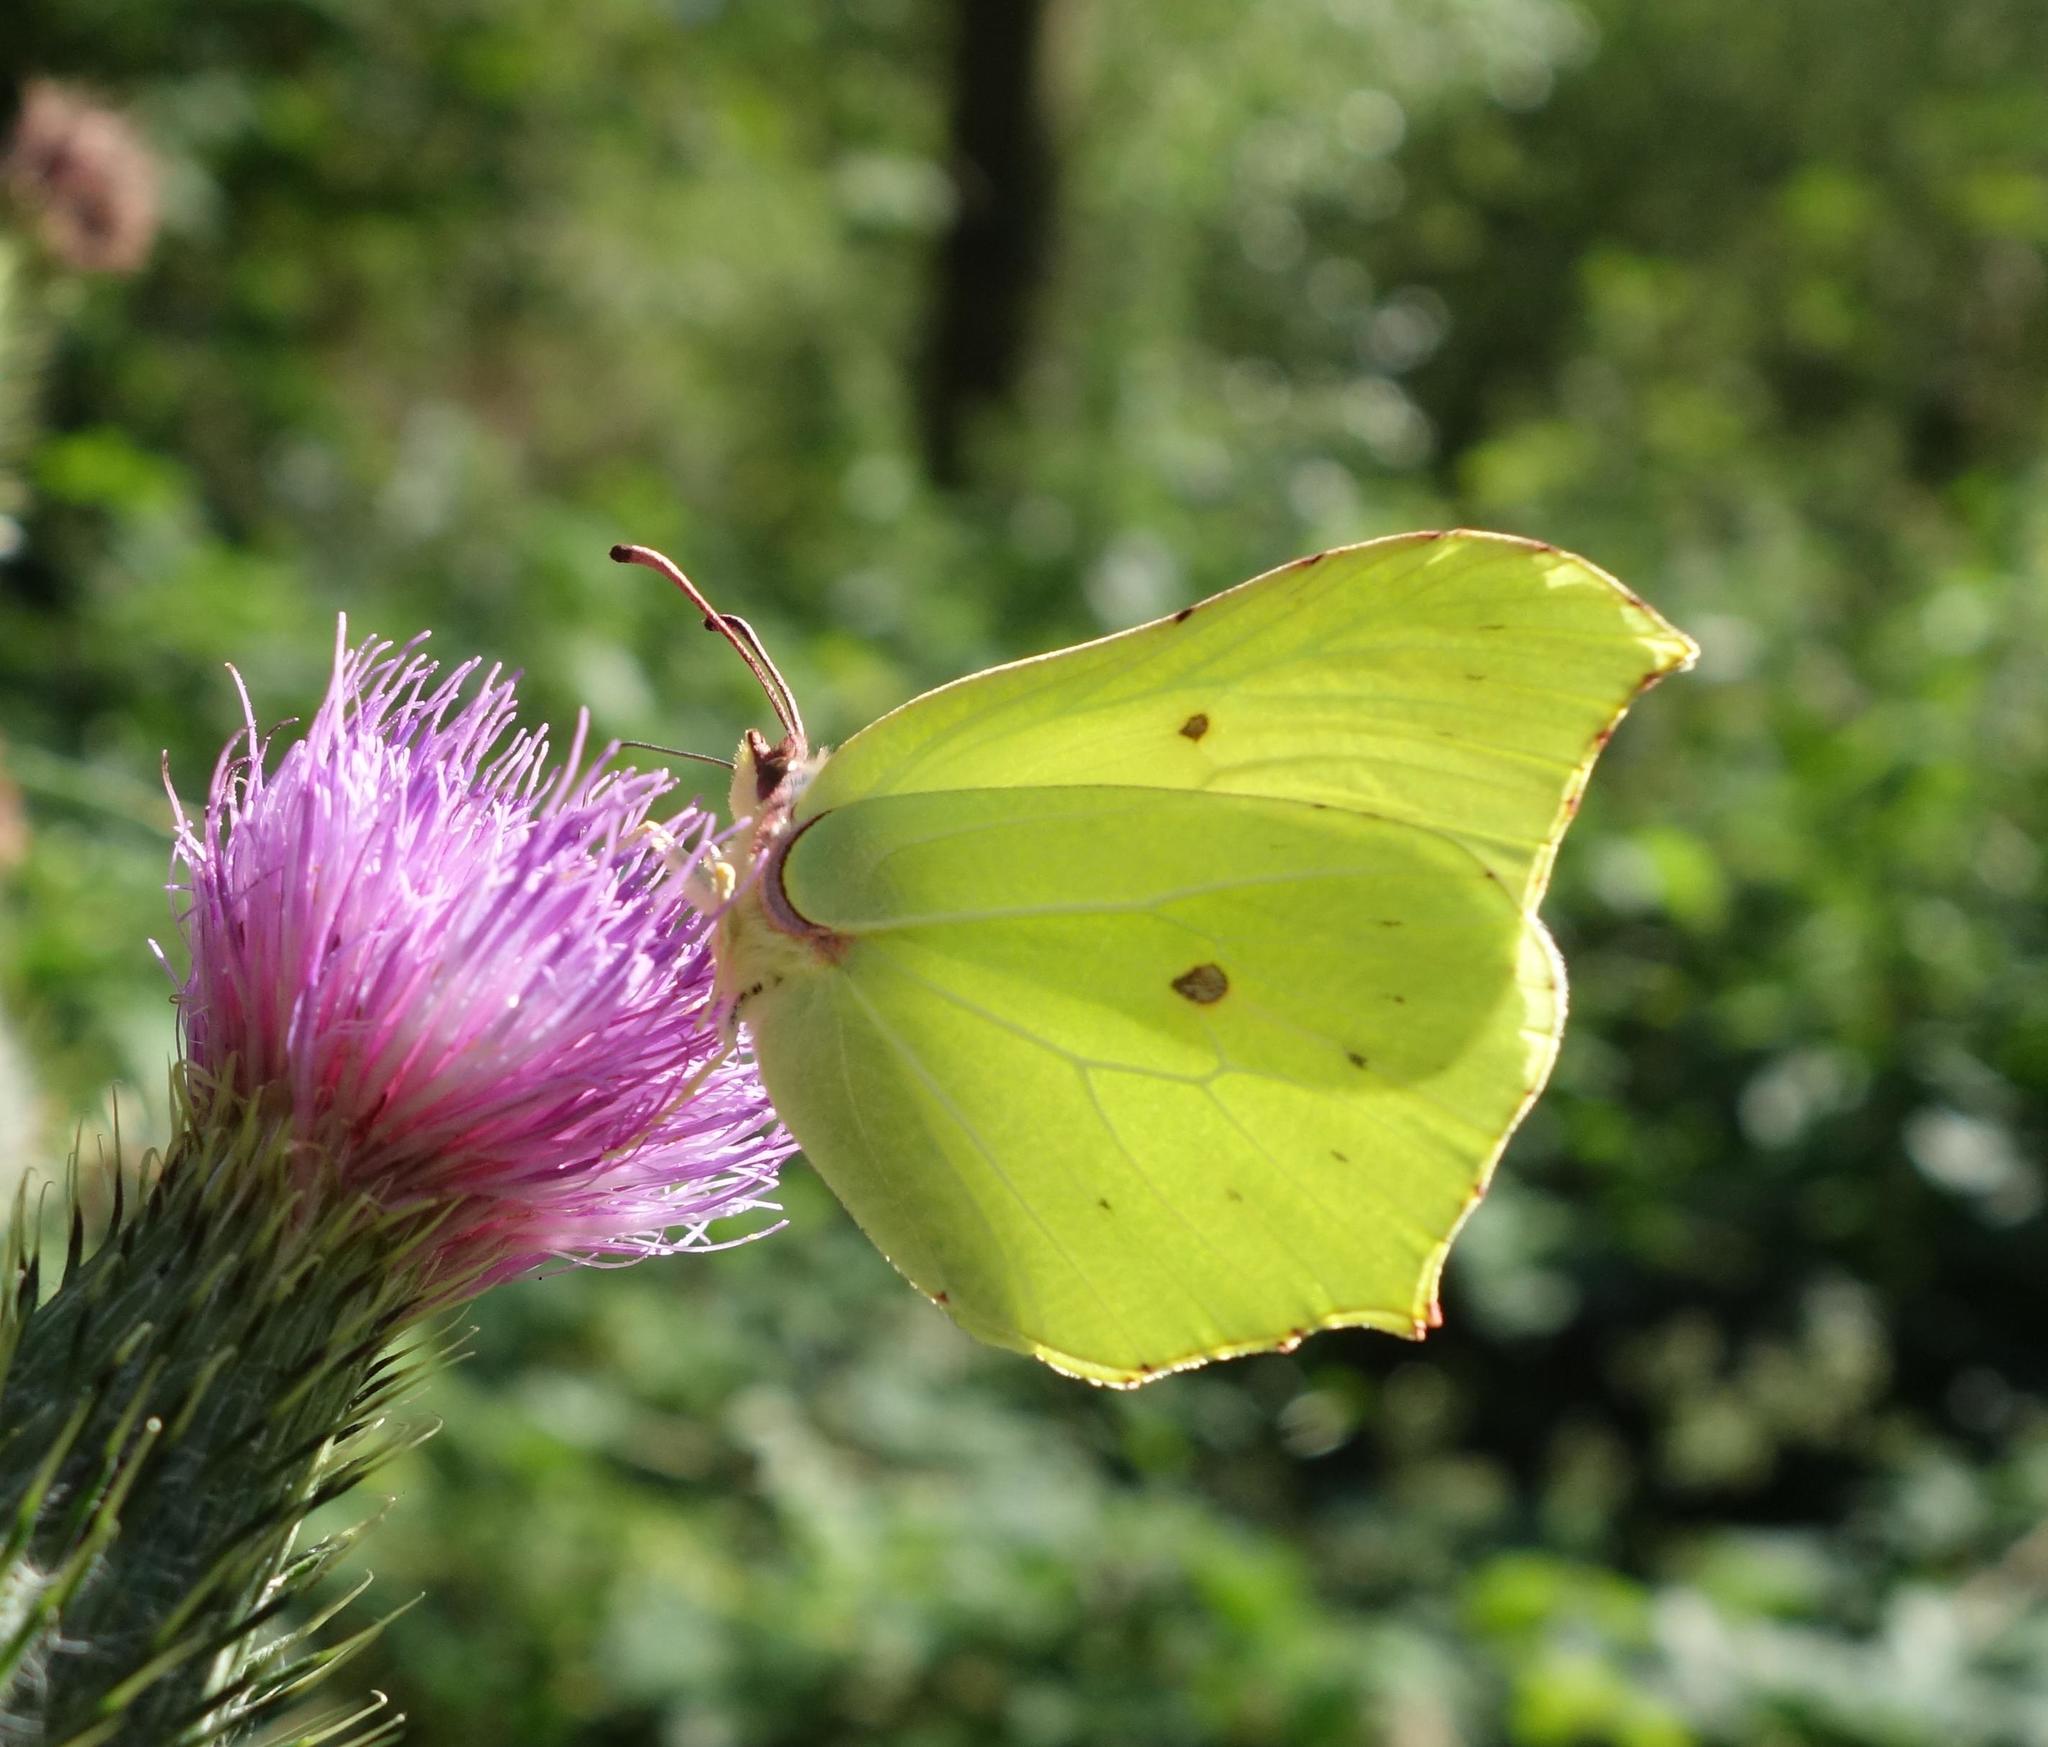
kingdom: Animalia
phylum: Arthropoda
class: Insecta
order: Lepidoptera
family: Pieridae
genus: Gonepteryx
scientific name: Gonepteryx rhamni
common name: Brimstone
